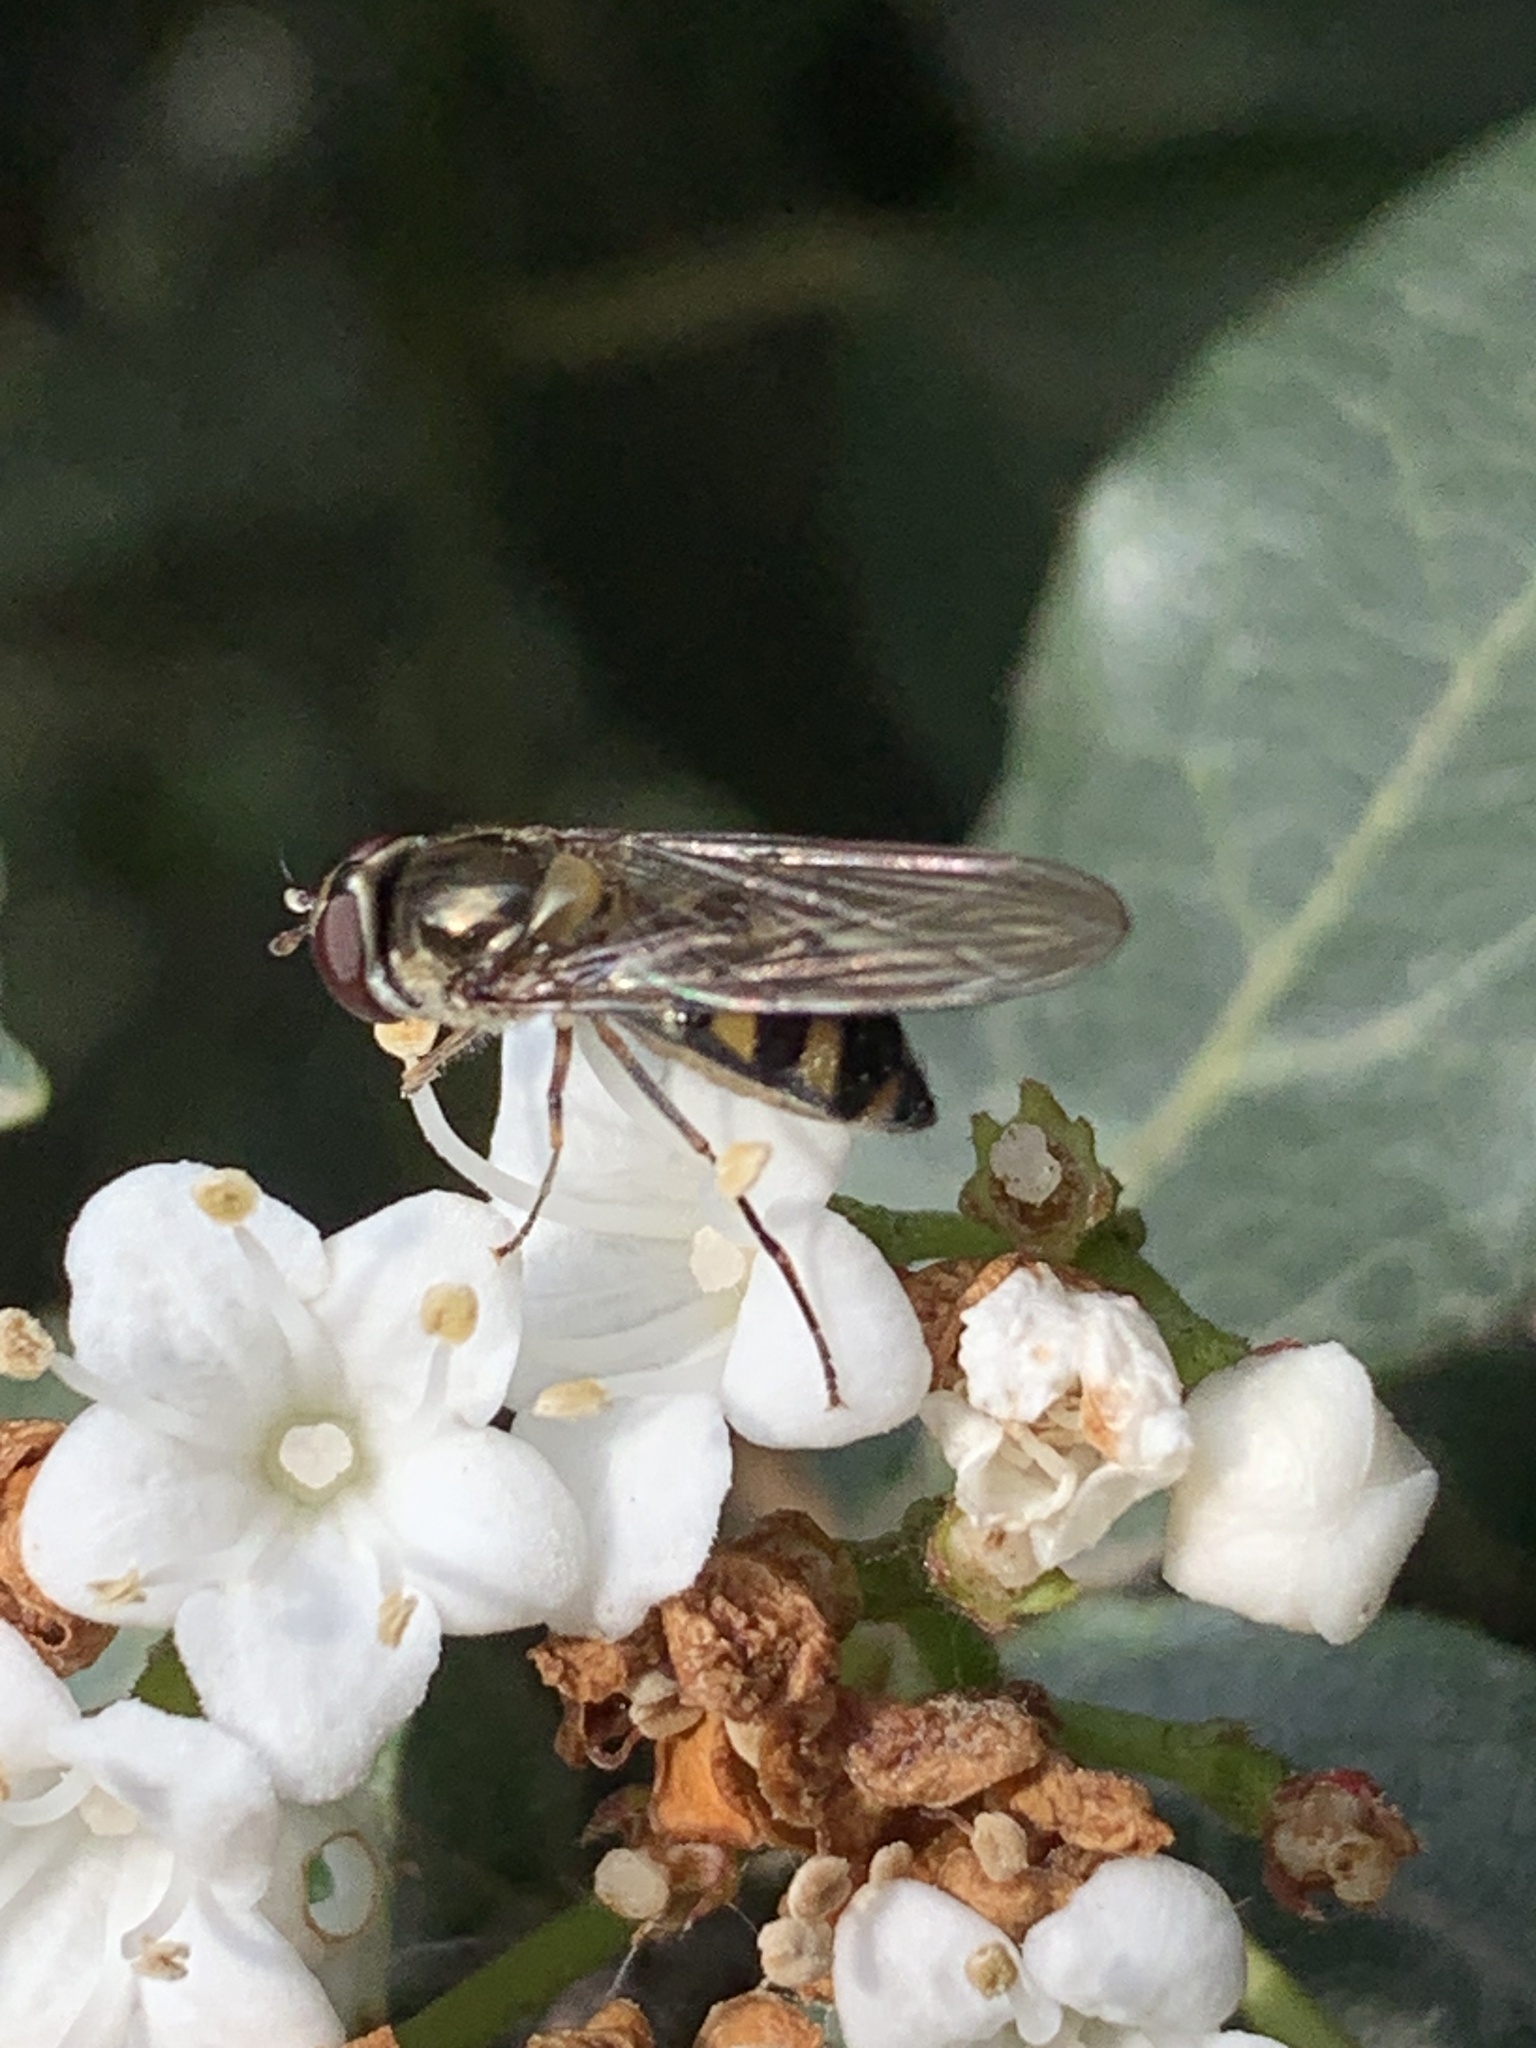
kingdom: Animalia
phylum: Arthropoda
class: Insecta
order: Diptera
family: Syrphidae
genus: Meliscaeva
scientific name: Meliscaeva auricollis
